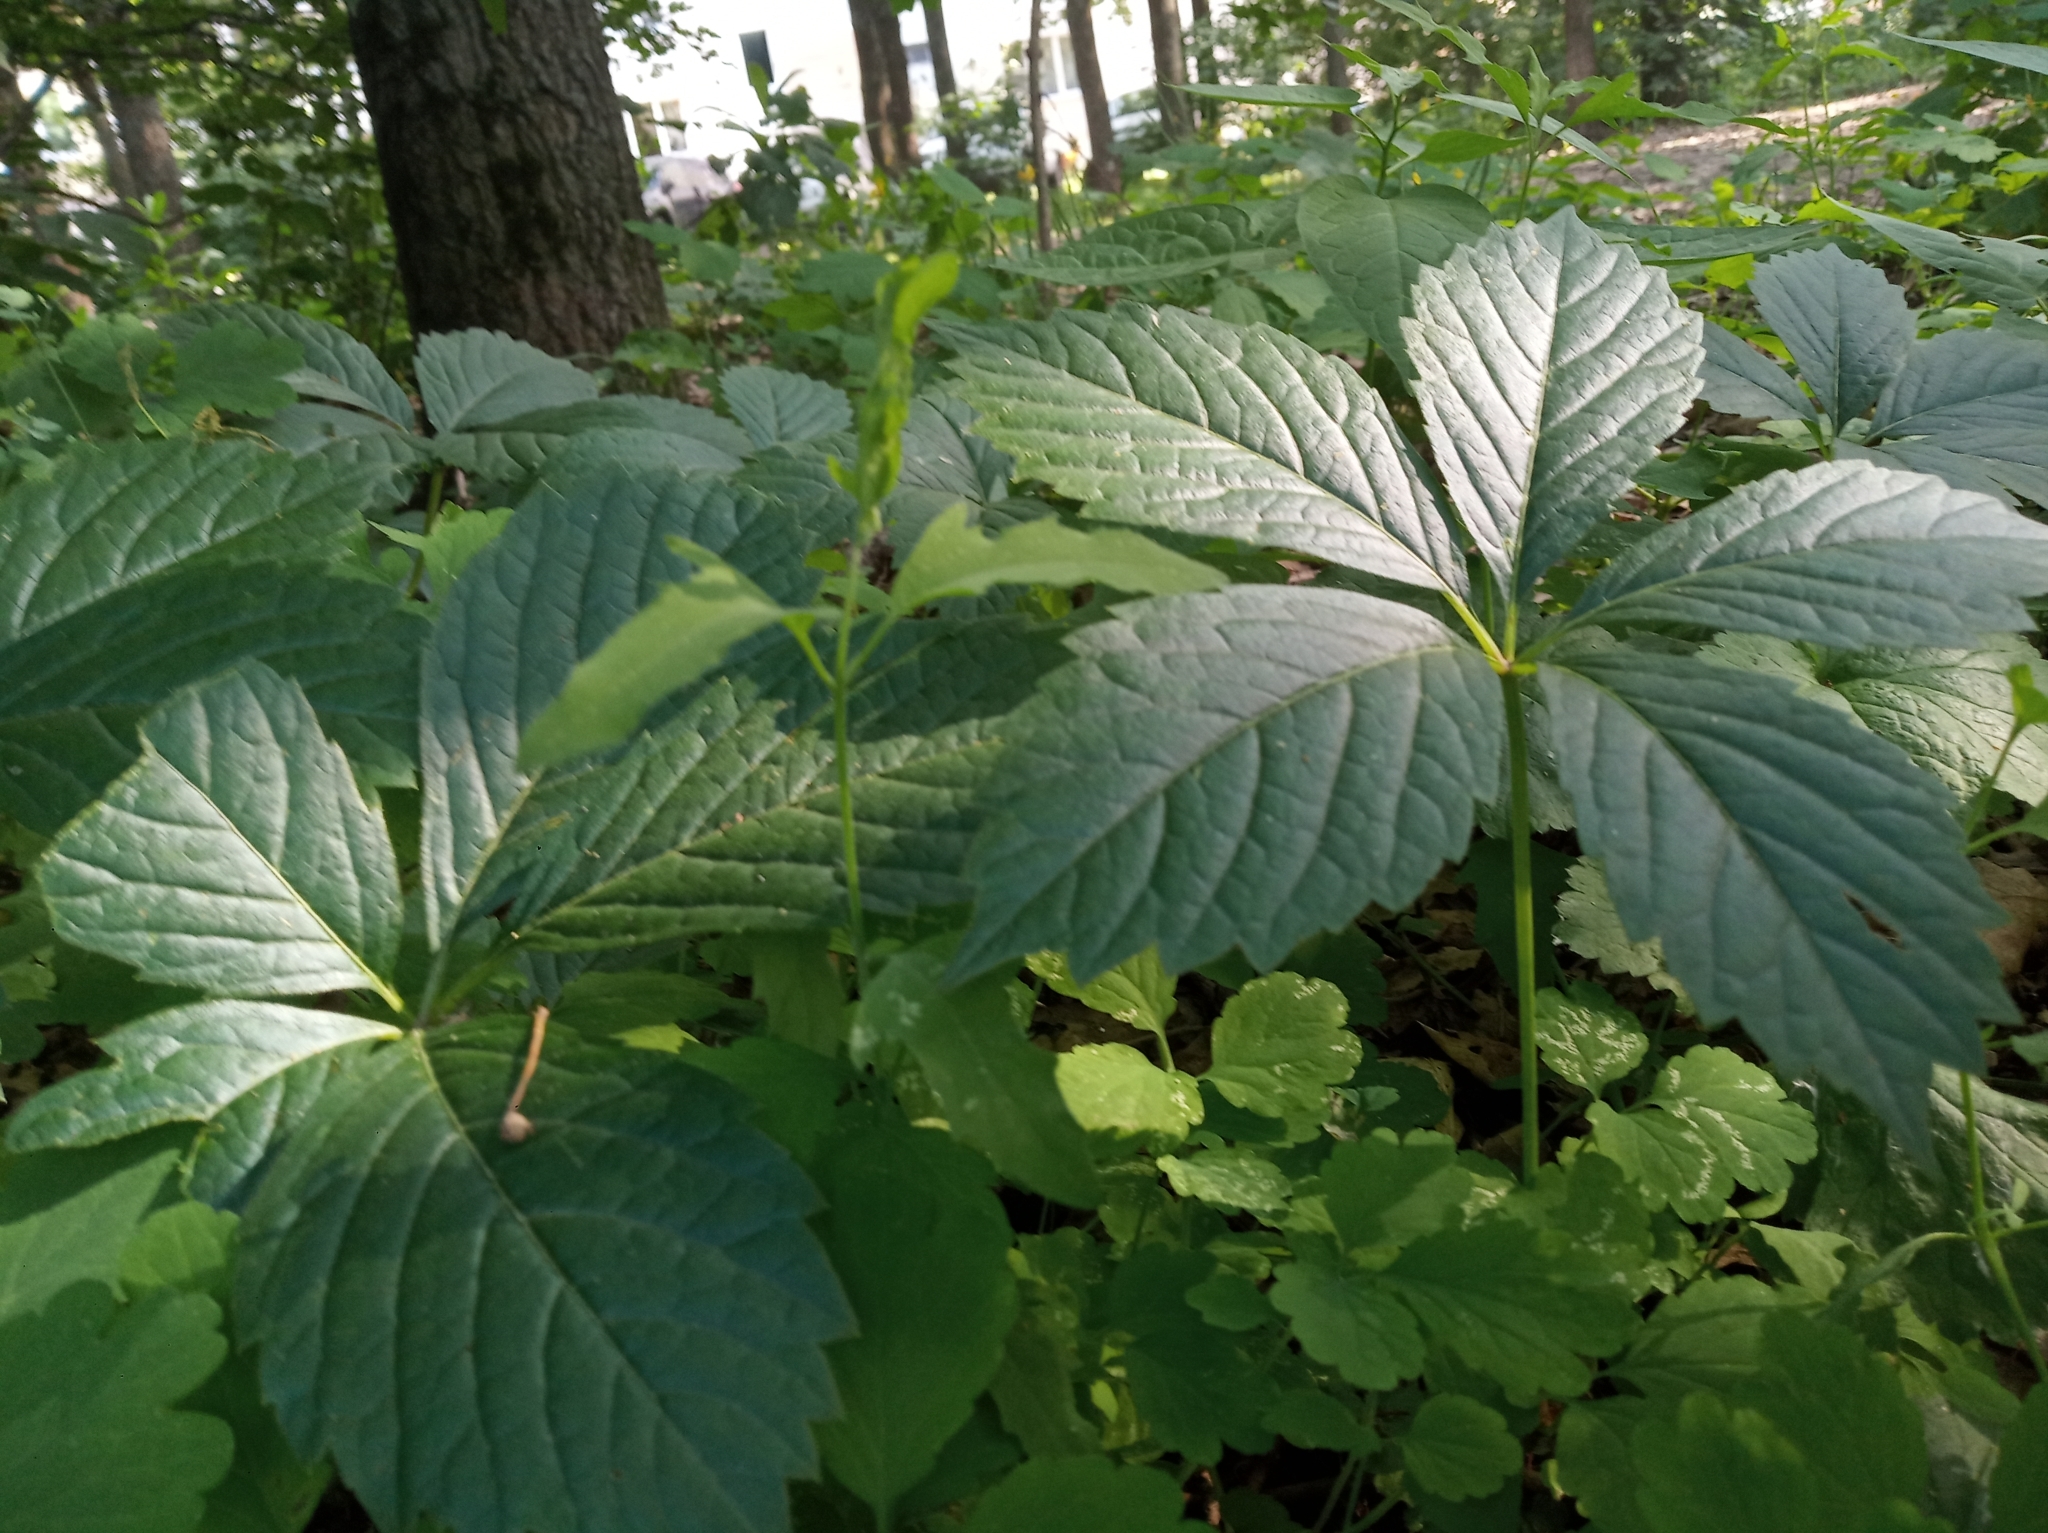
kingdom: Plantae
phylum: Tracheophyta
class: Magnoliopsida
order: Vitales
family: Vitaceae
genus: Parthenocissus
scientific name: Parthenocissus inserta
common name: False virginia-creeper
